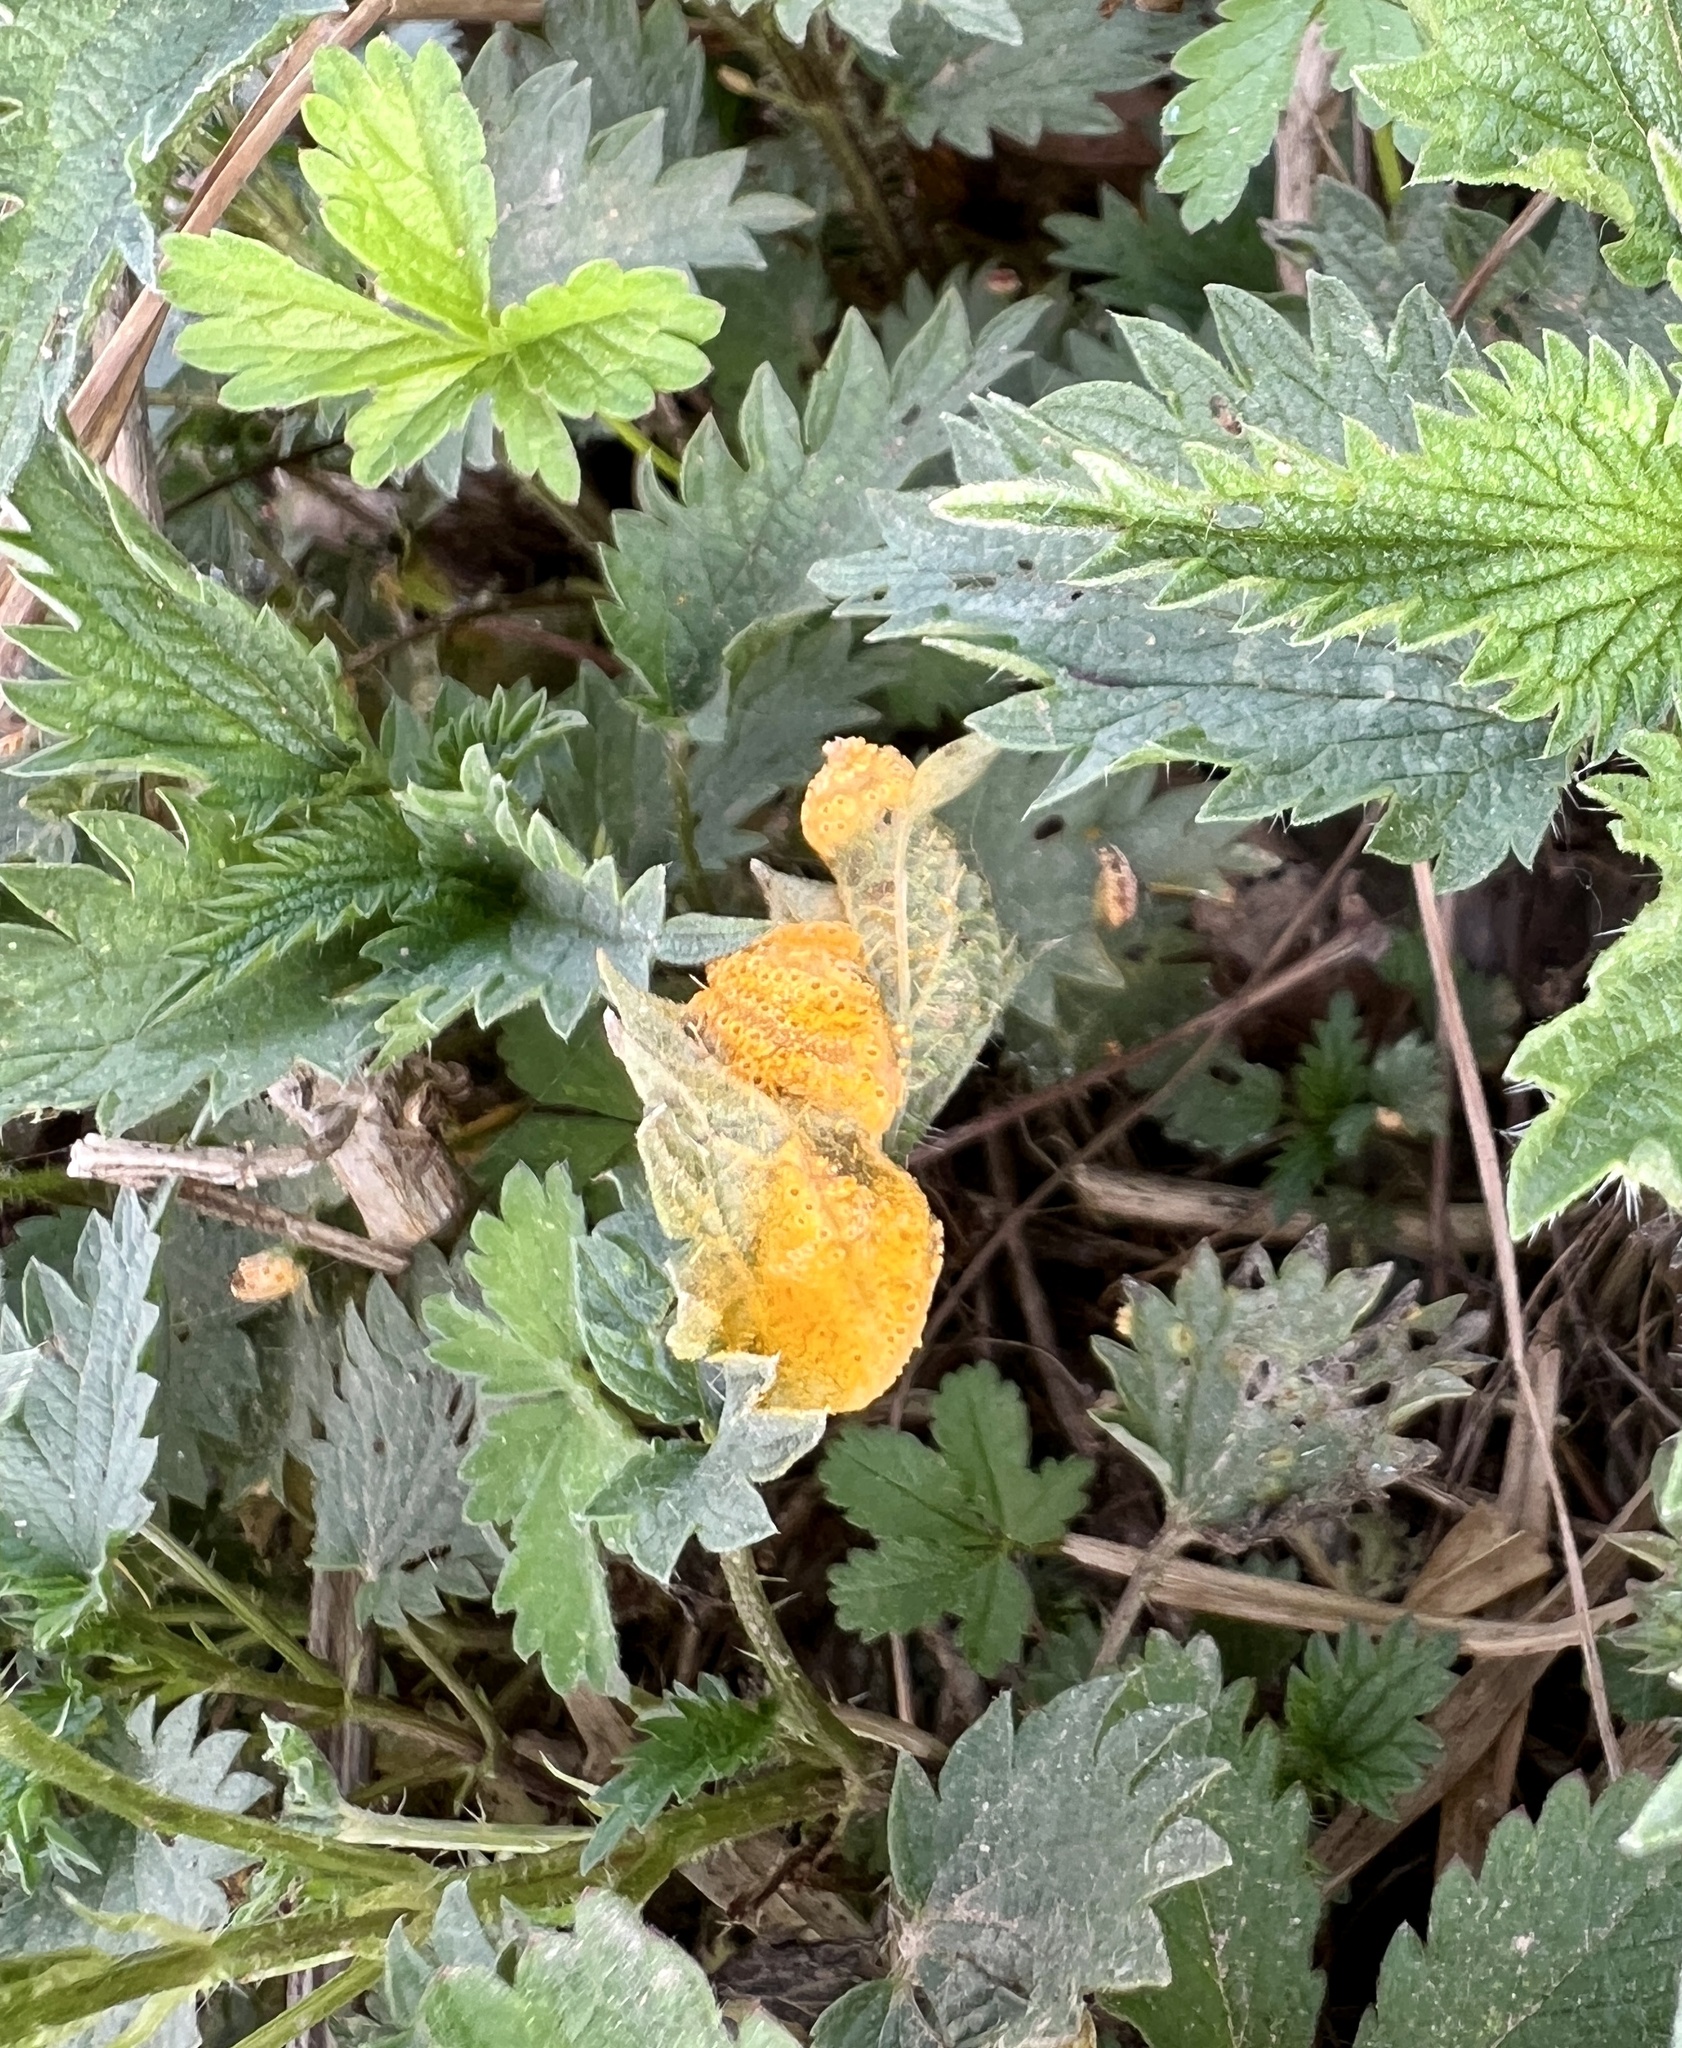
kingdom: Fungi
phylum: Basidiomycota
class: Pucciniomycetes
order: Pucciniales
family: Pucciniaceae
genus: Puccinia
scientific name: Puccinia urticata
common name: Nettle clustercup rust fungus
